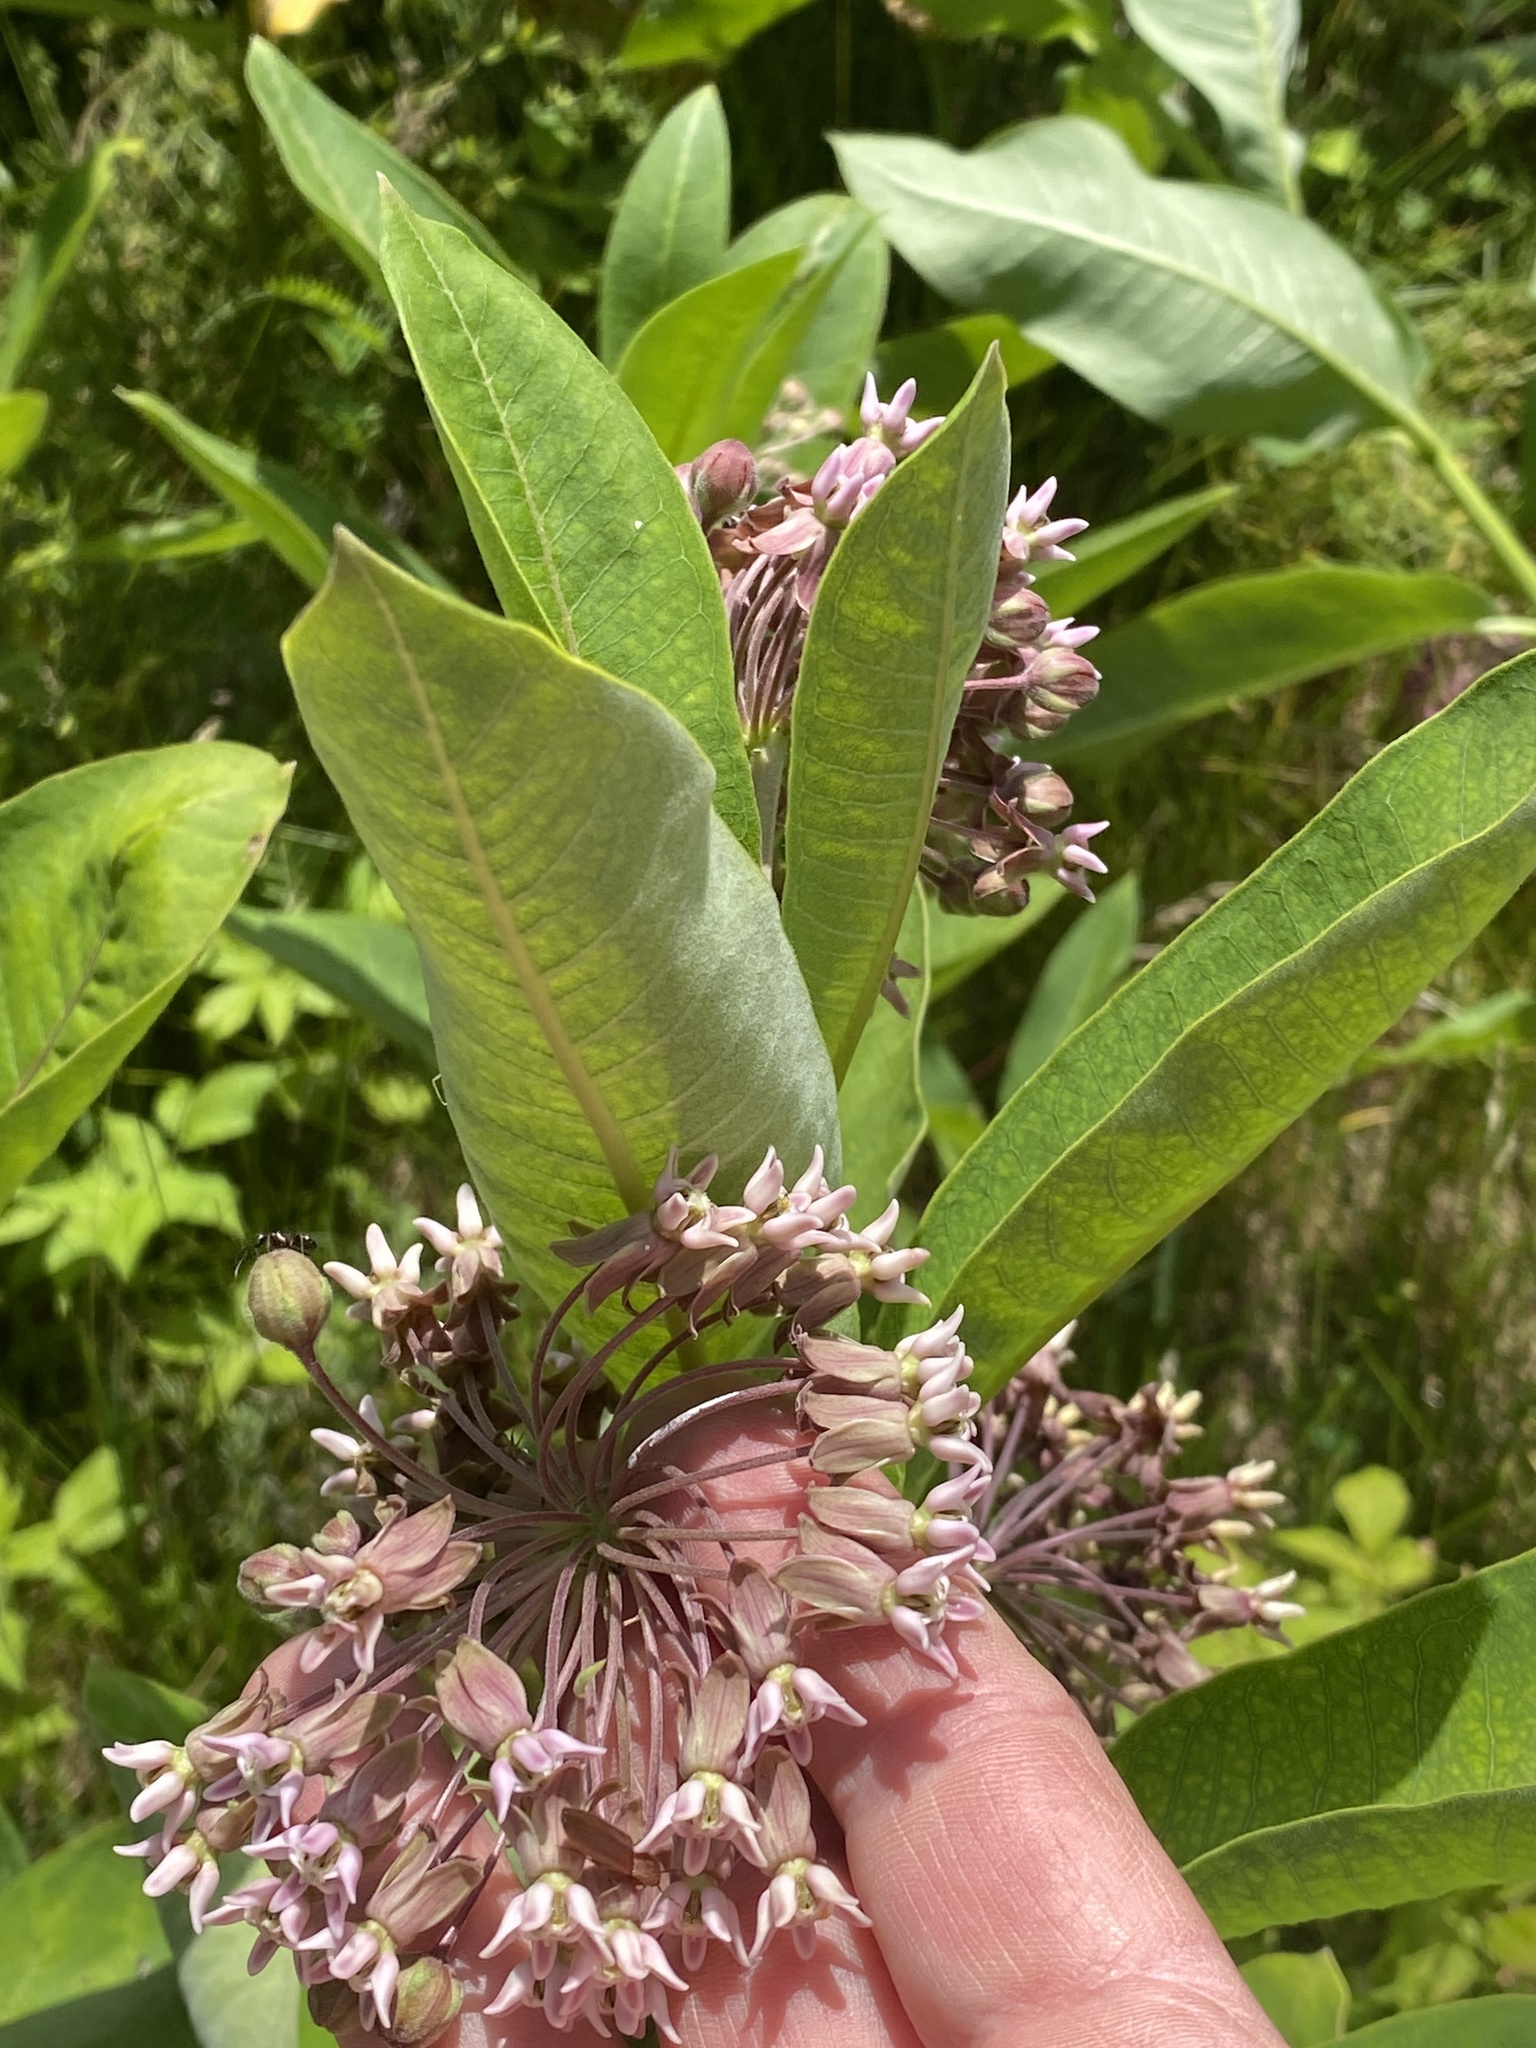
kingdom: Plantae
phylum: Tracheophyta
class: Magnoliopsida
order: Gentianales
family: Apocynaceae
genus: Asclepias
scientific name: Asclepias syriaca
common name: Common milkweed
